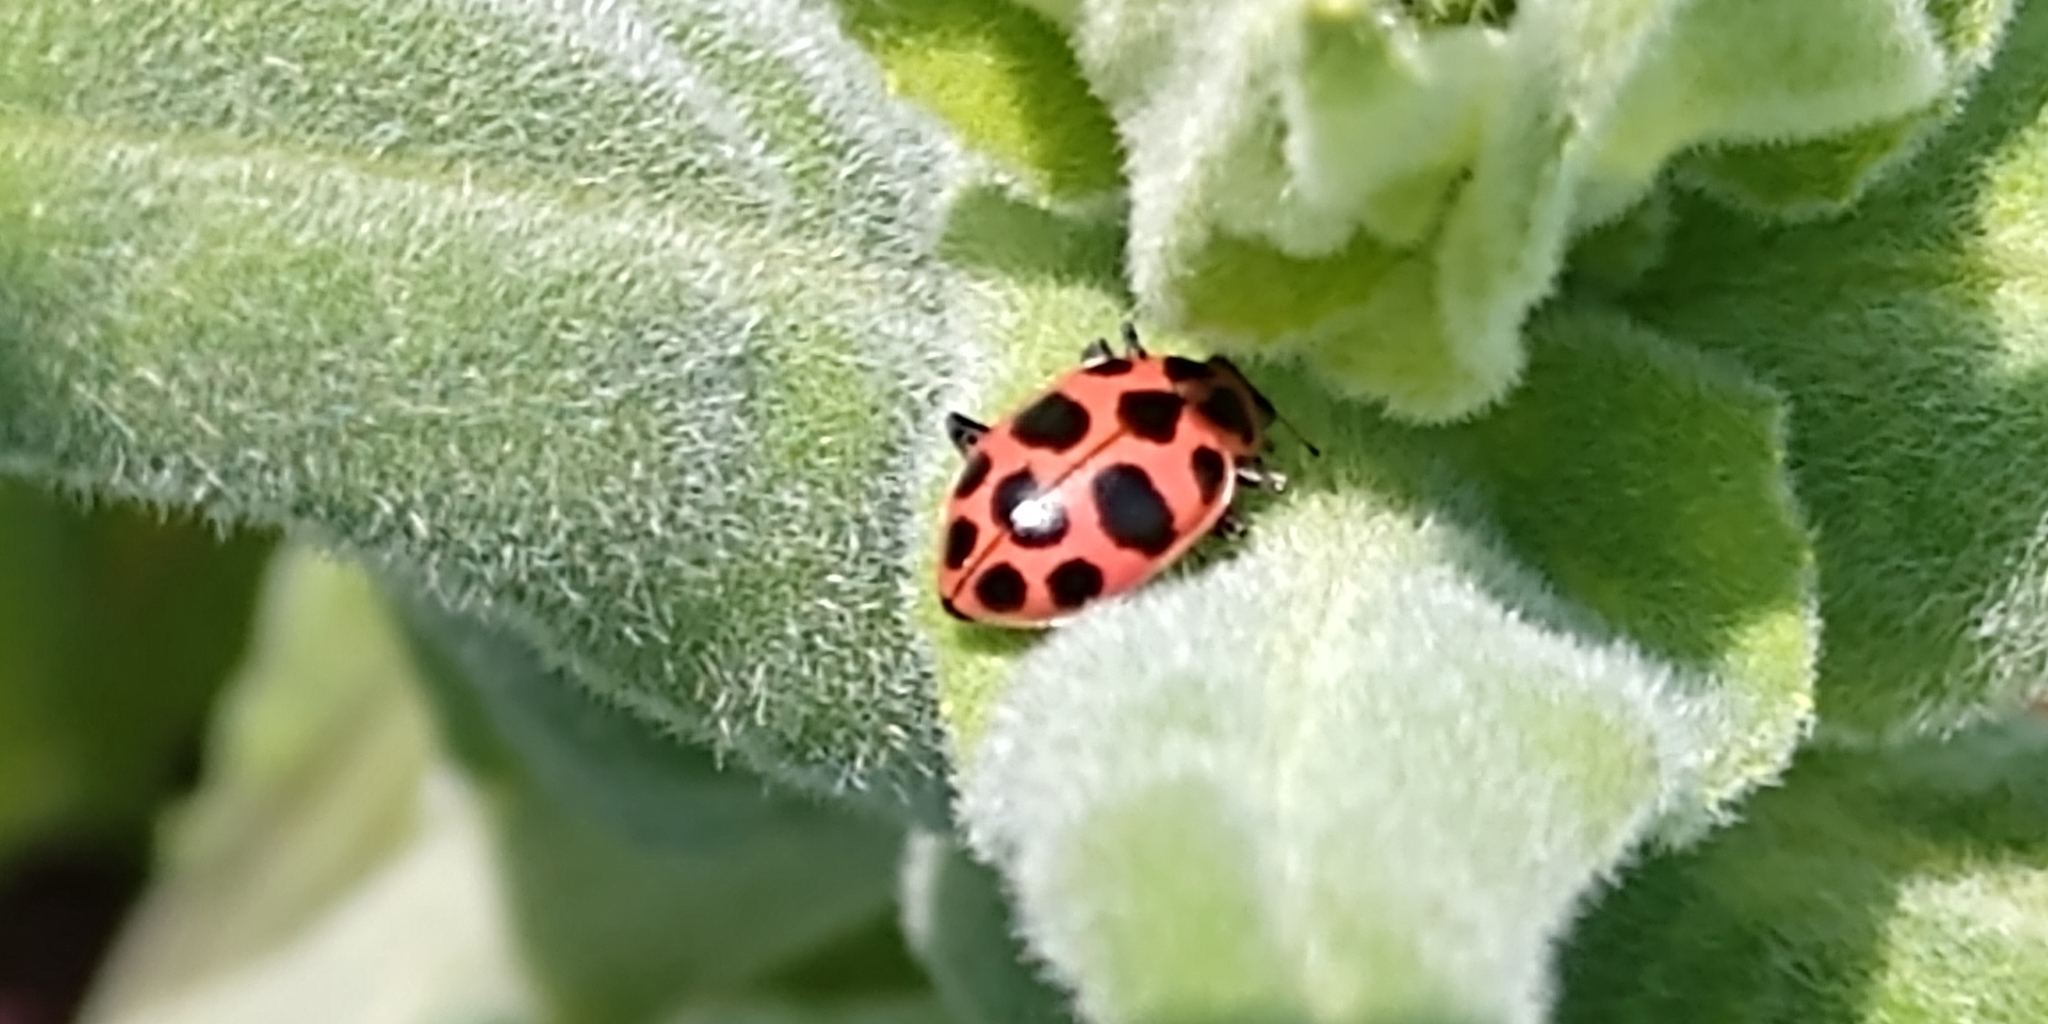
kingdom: Animalia
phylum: Arthropoda
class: Insecta
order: Coleoptera
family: Coccinellidae
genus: Coleomegilla
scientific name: Coleomegilla maculata
